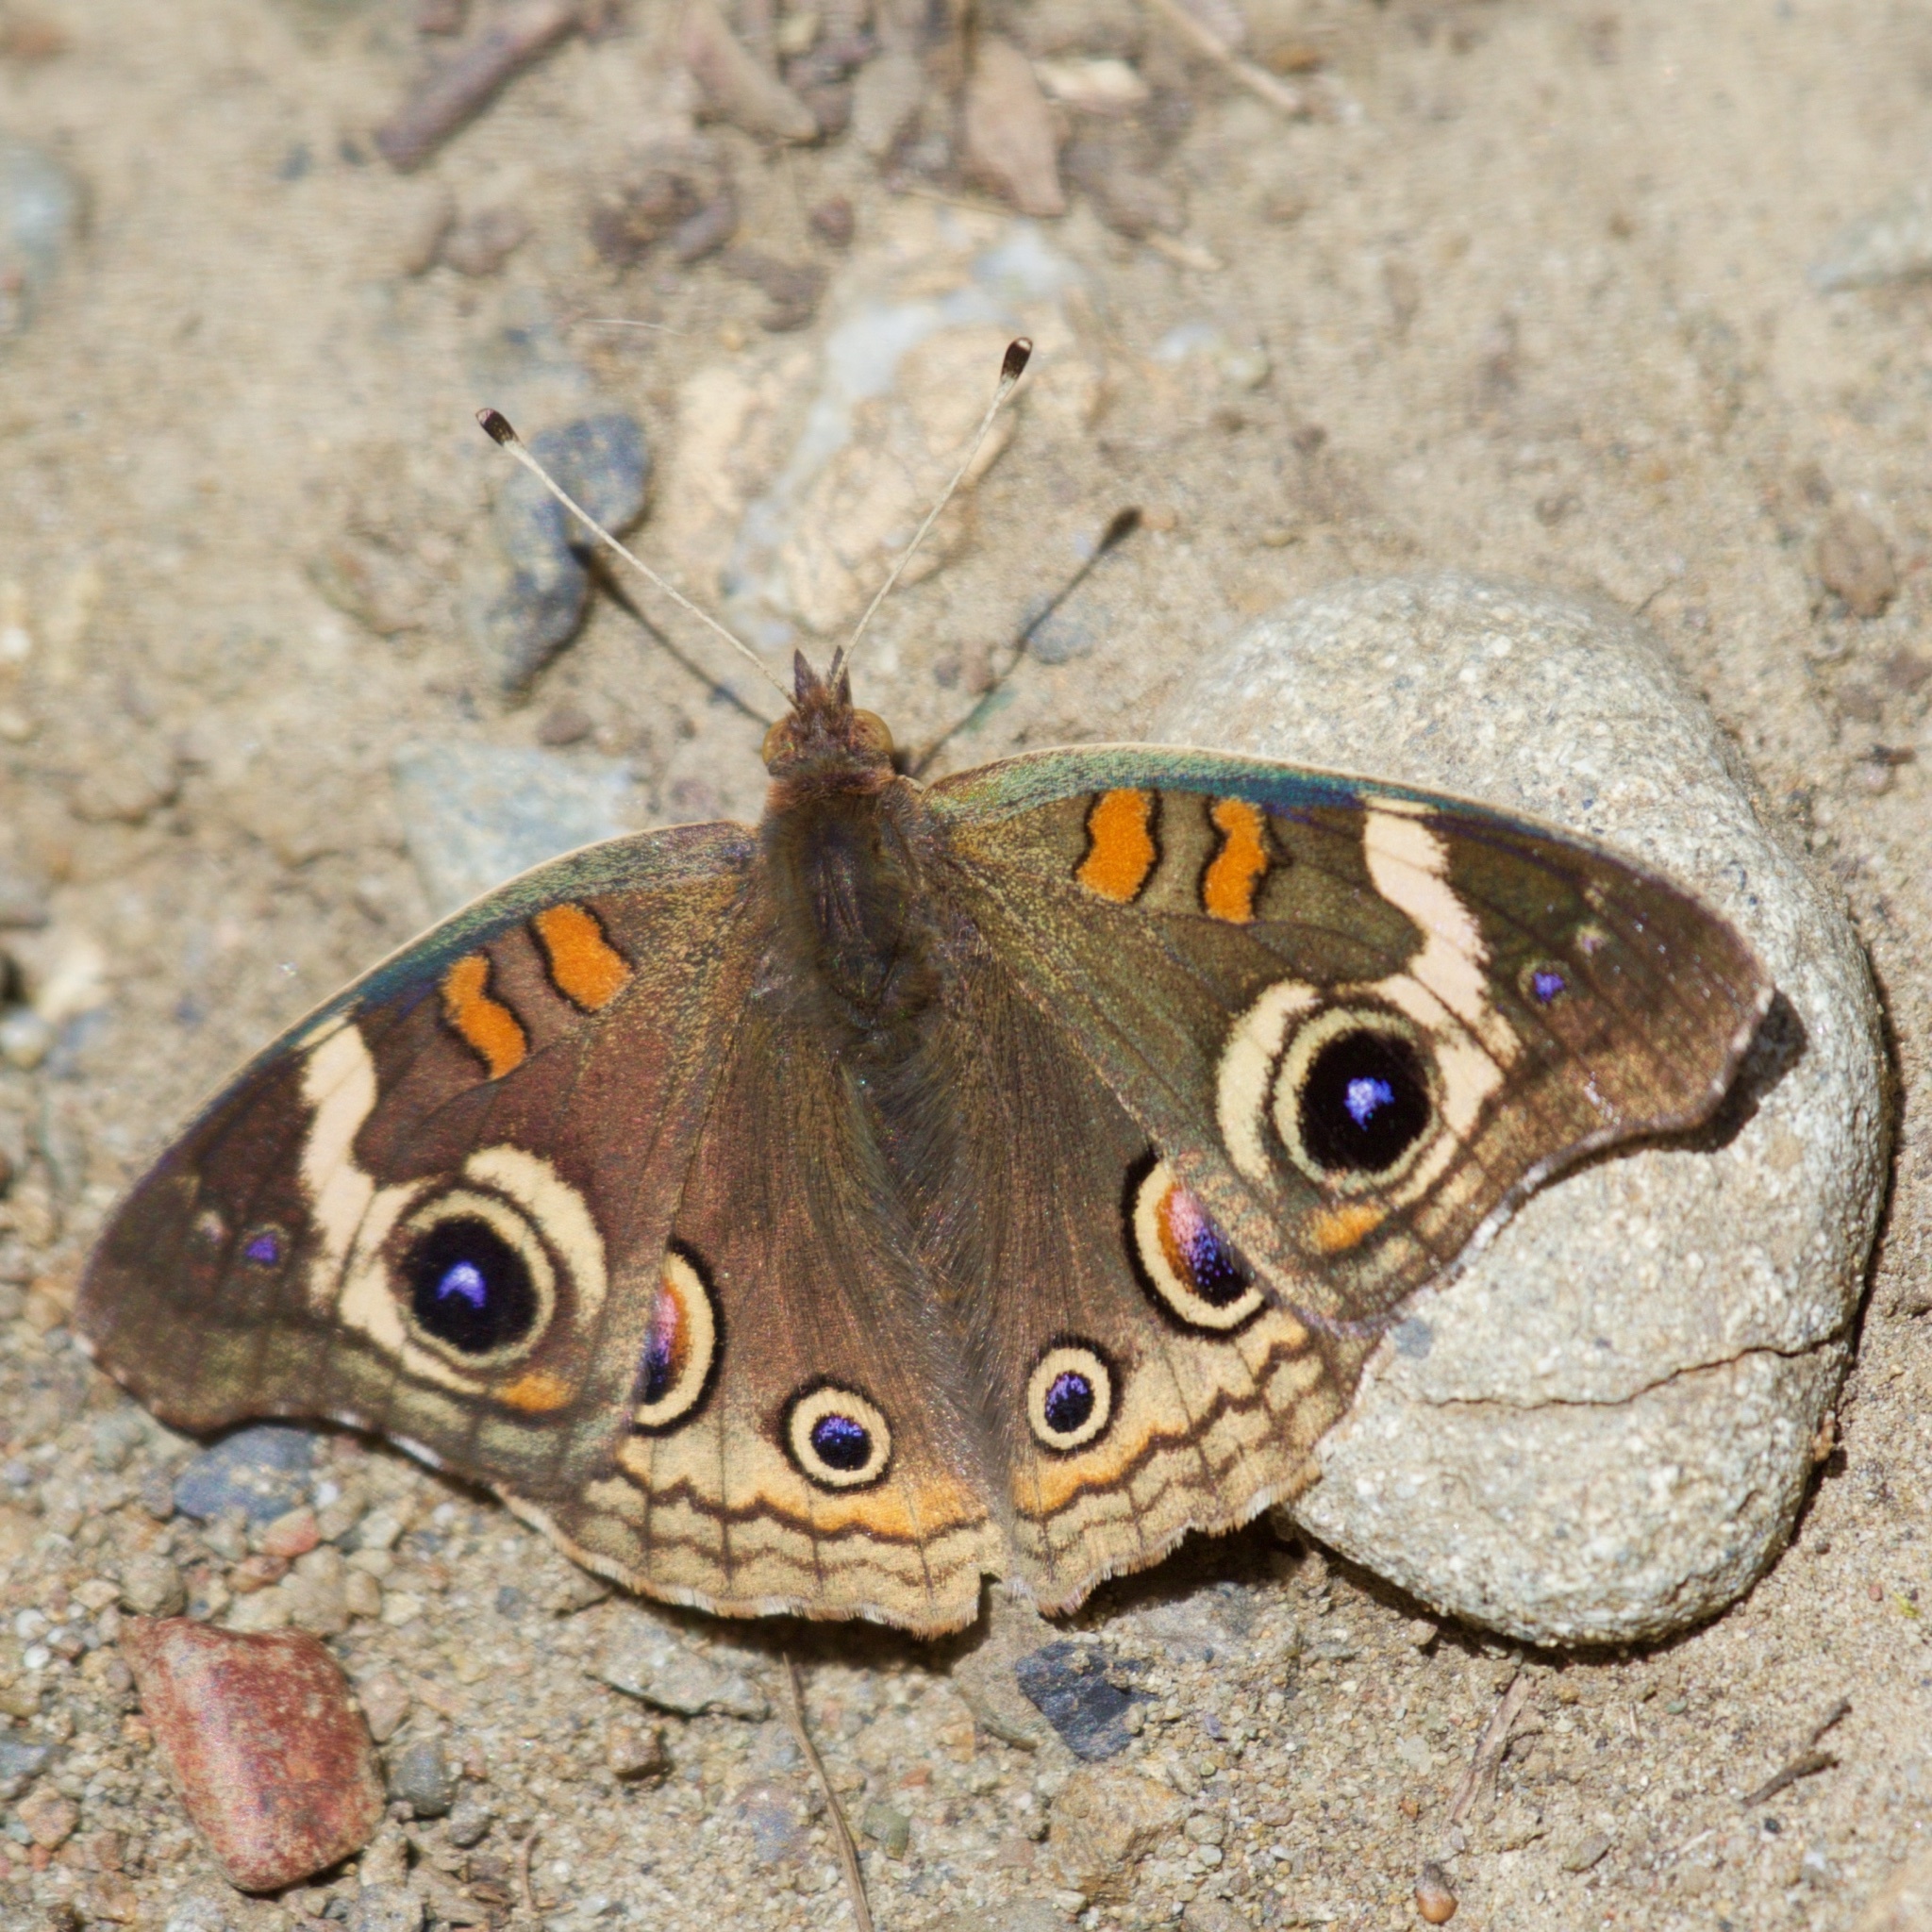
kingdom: Animalia
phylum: Arthropoda
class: Insecta
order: Lepidoptera
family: Nymphalidae
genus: Junonia
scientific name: Junonia grisea
